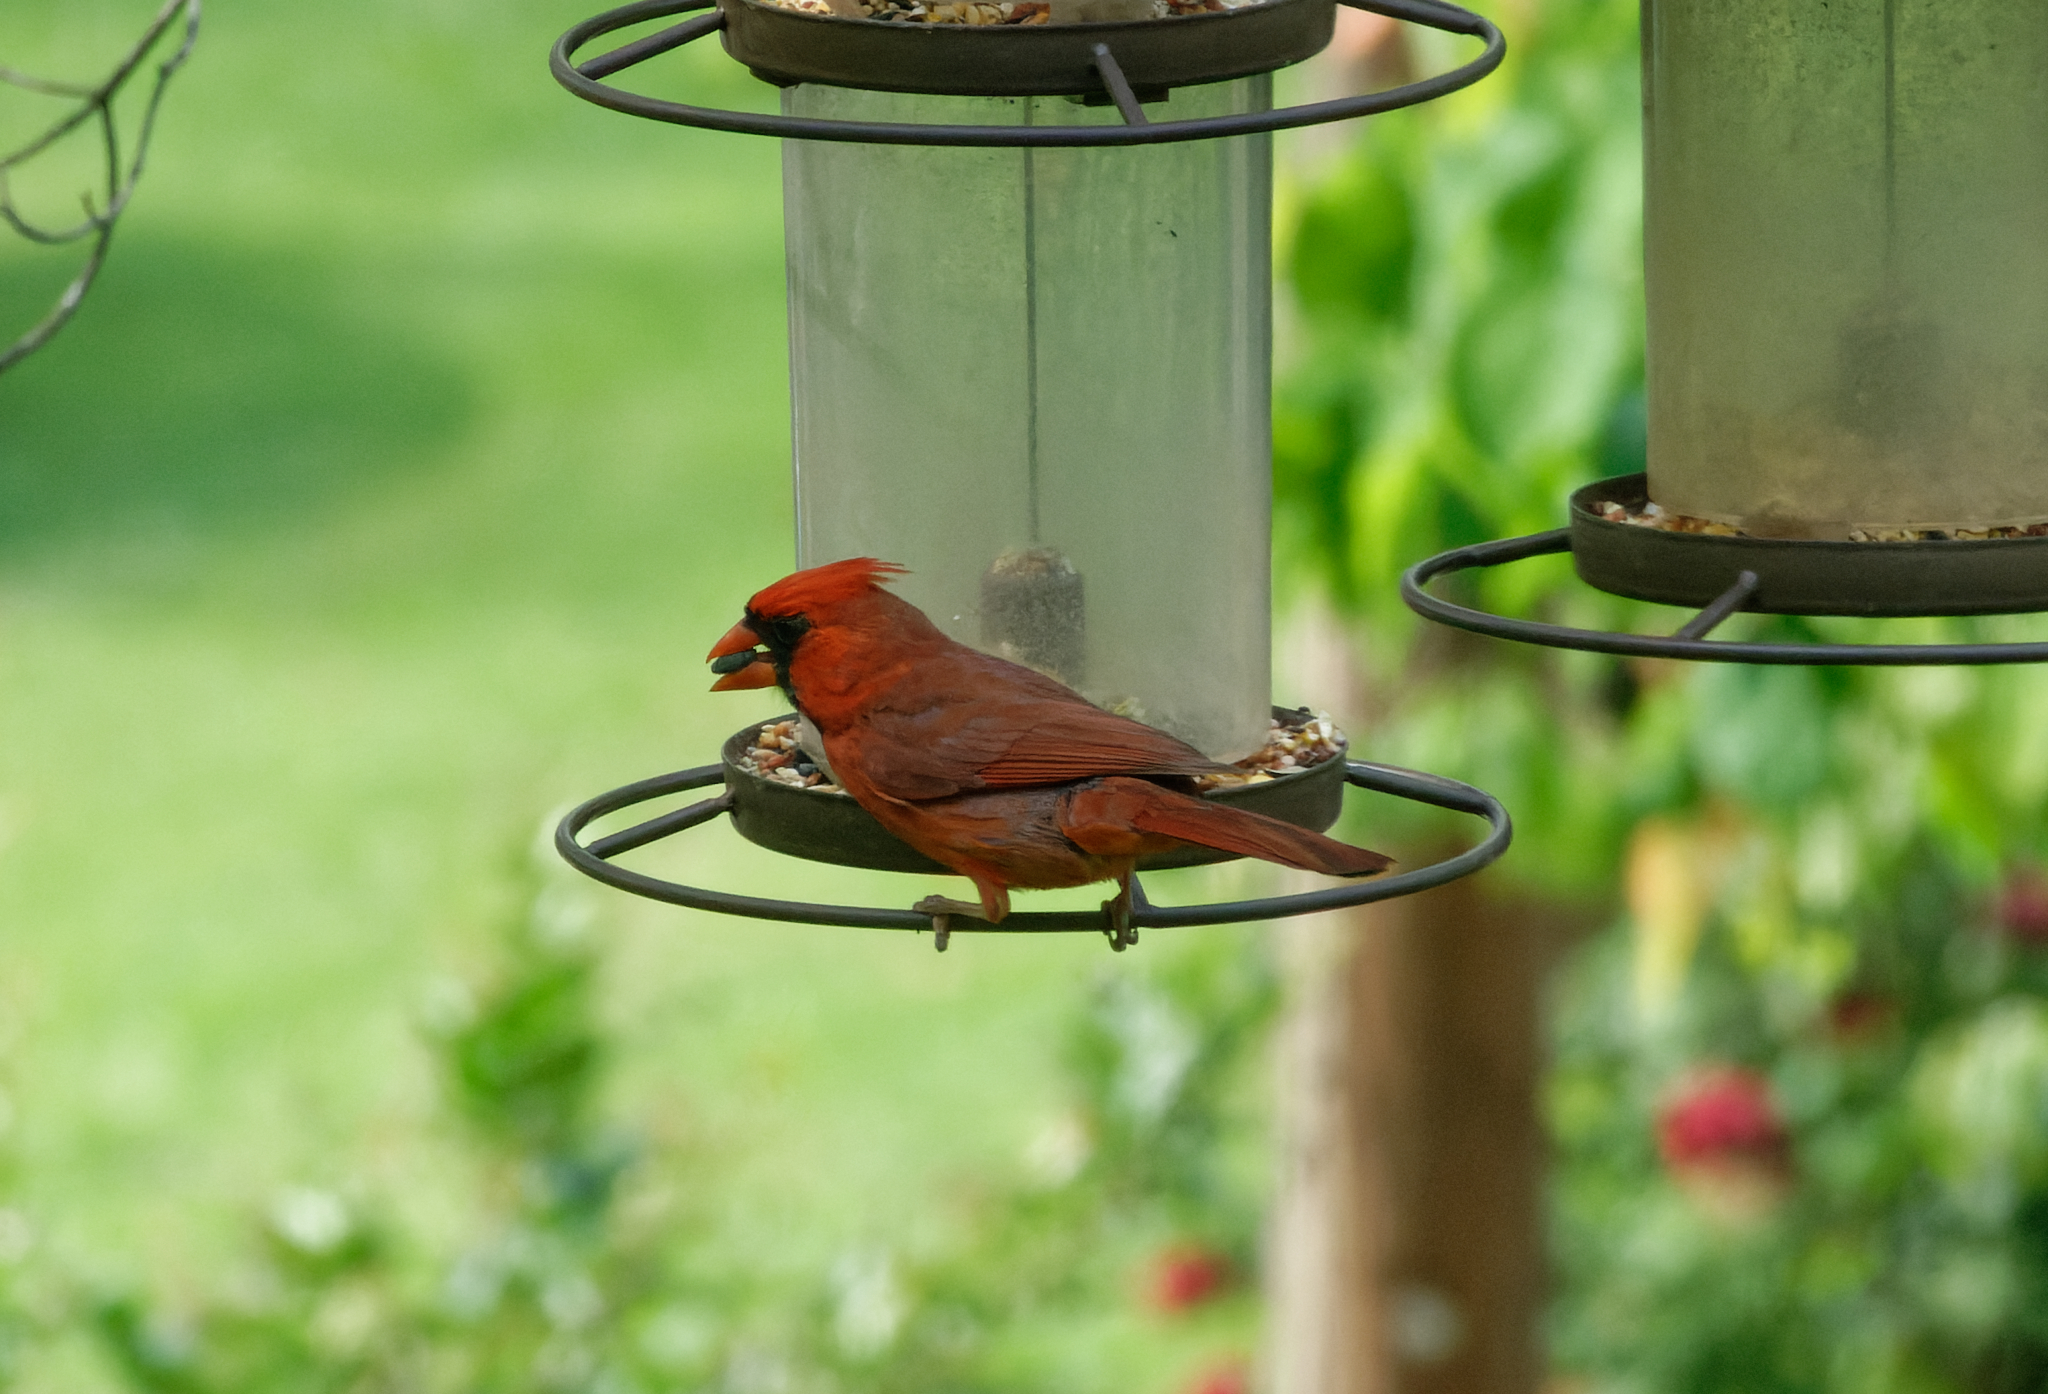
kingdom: Animalia
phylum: Chordata
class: Aves
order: Passeriformes
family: Cardinalidae
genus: Cardinalis
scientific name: Cardinalis cardinalis
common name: Northern cardinal
